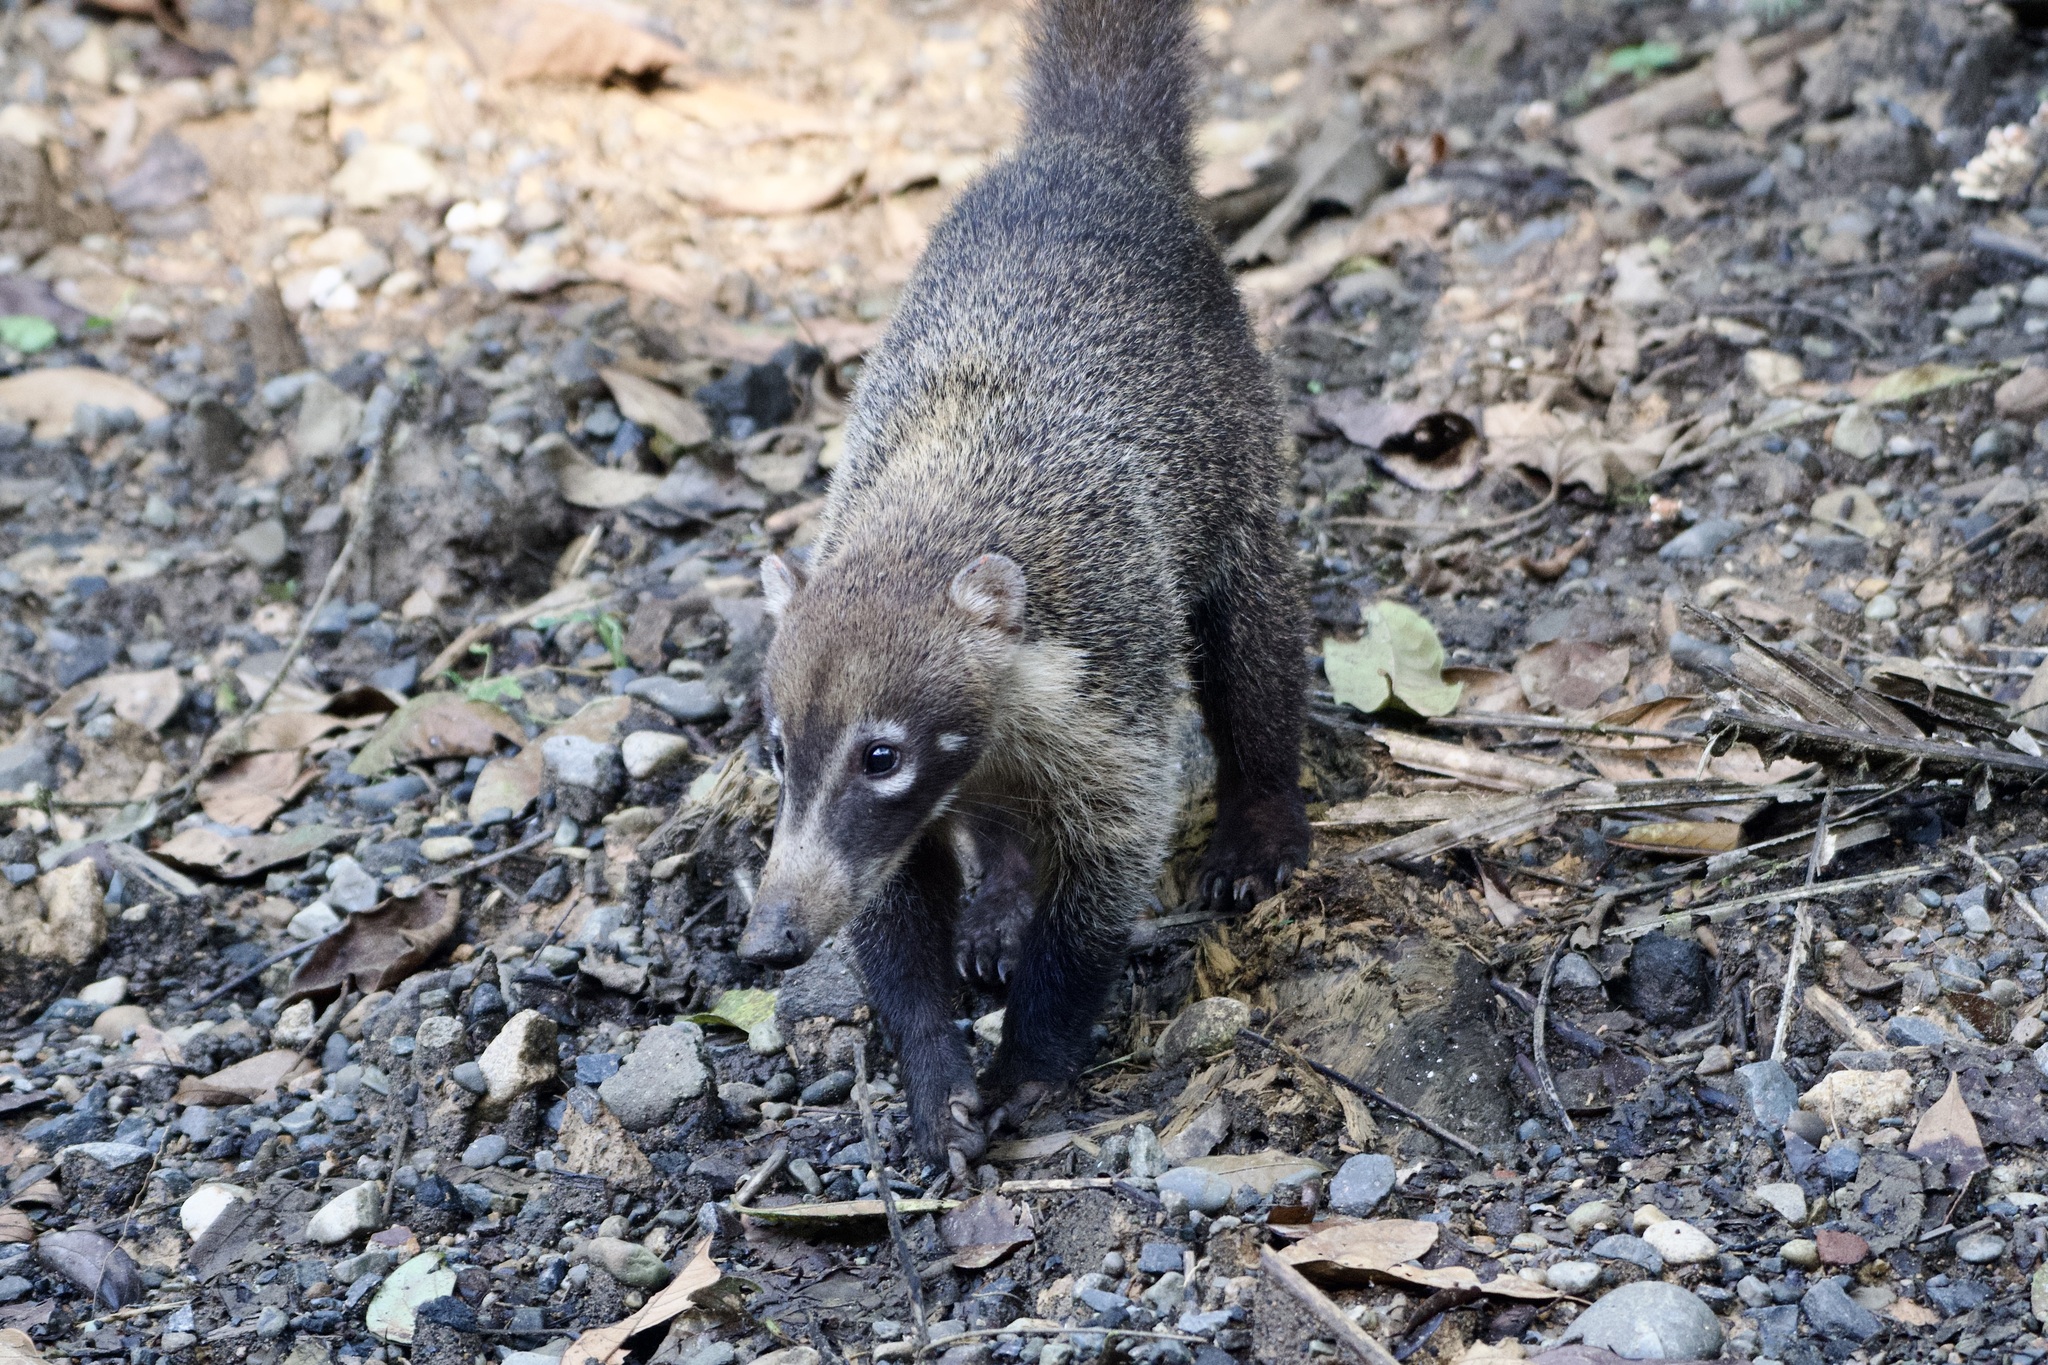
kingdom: Animalia
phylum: Chordata
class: Mammalia
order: Carnivora
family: Procyonidae
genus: Nasua
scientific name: Nasua narica
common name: White-nosed coati
